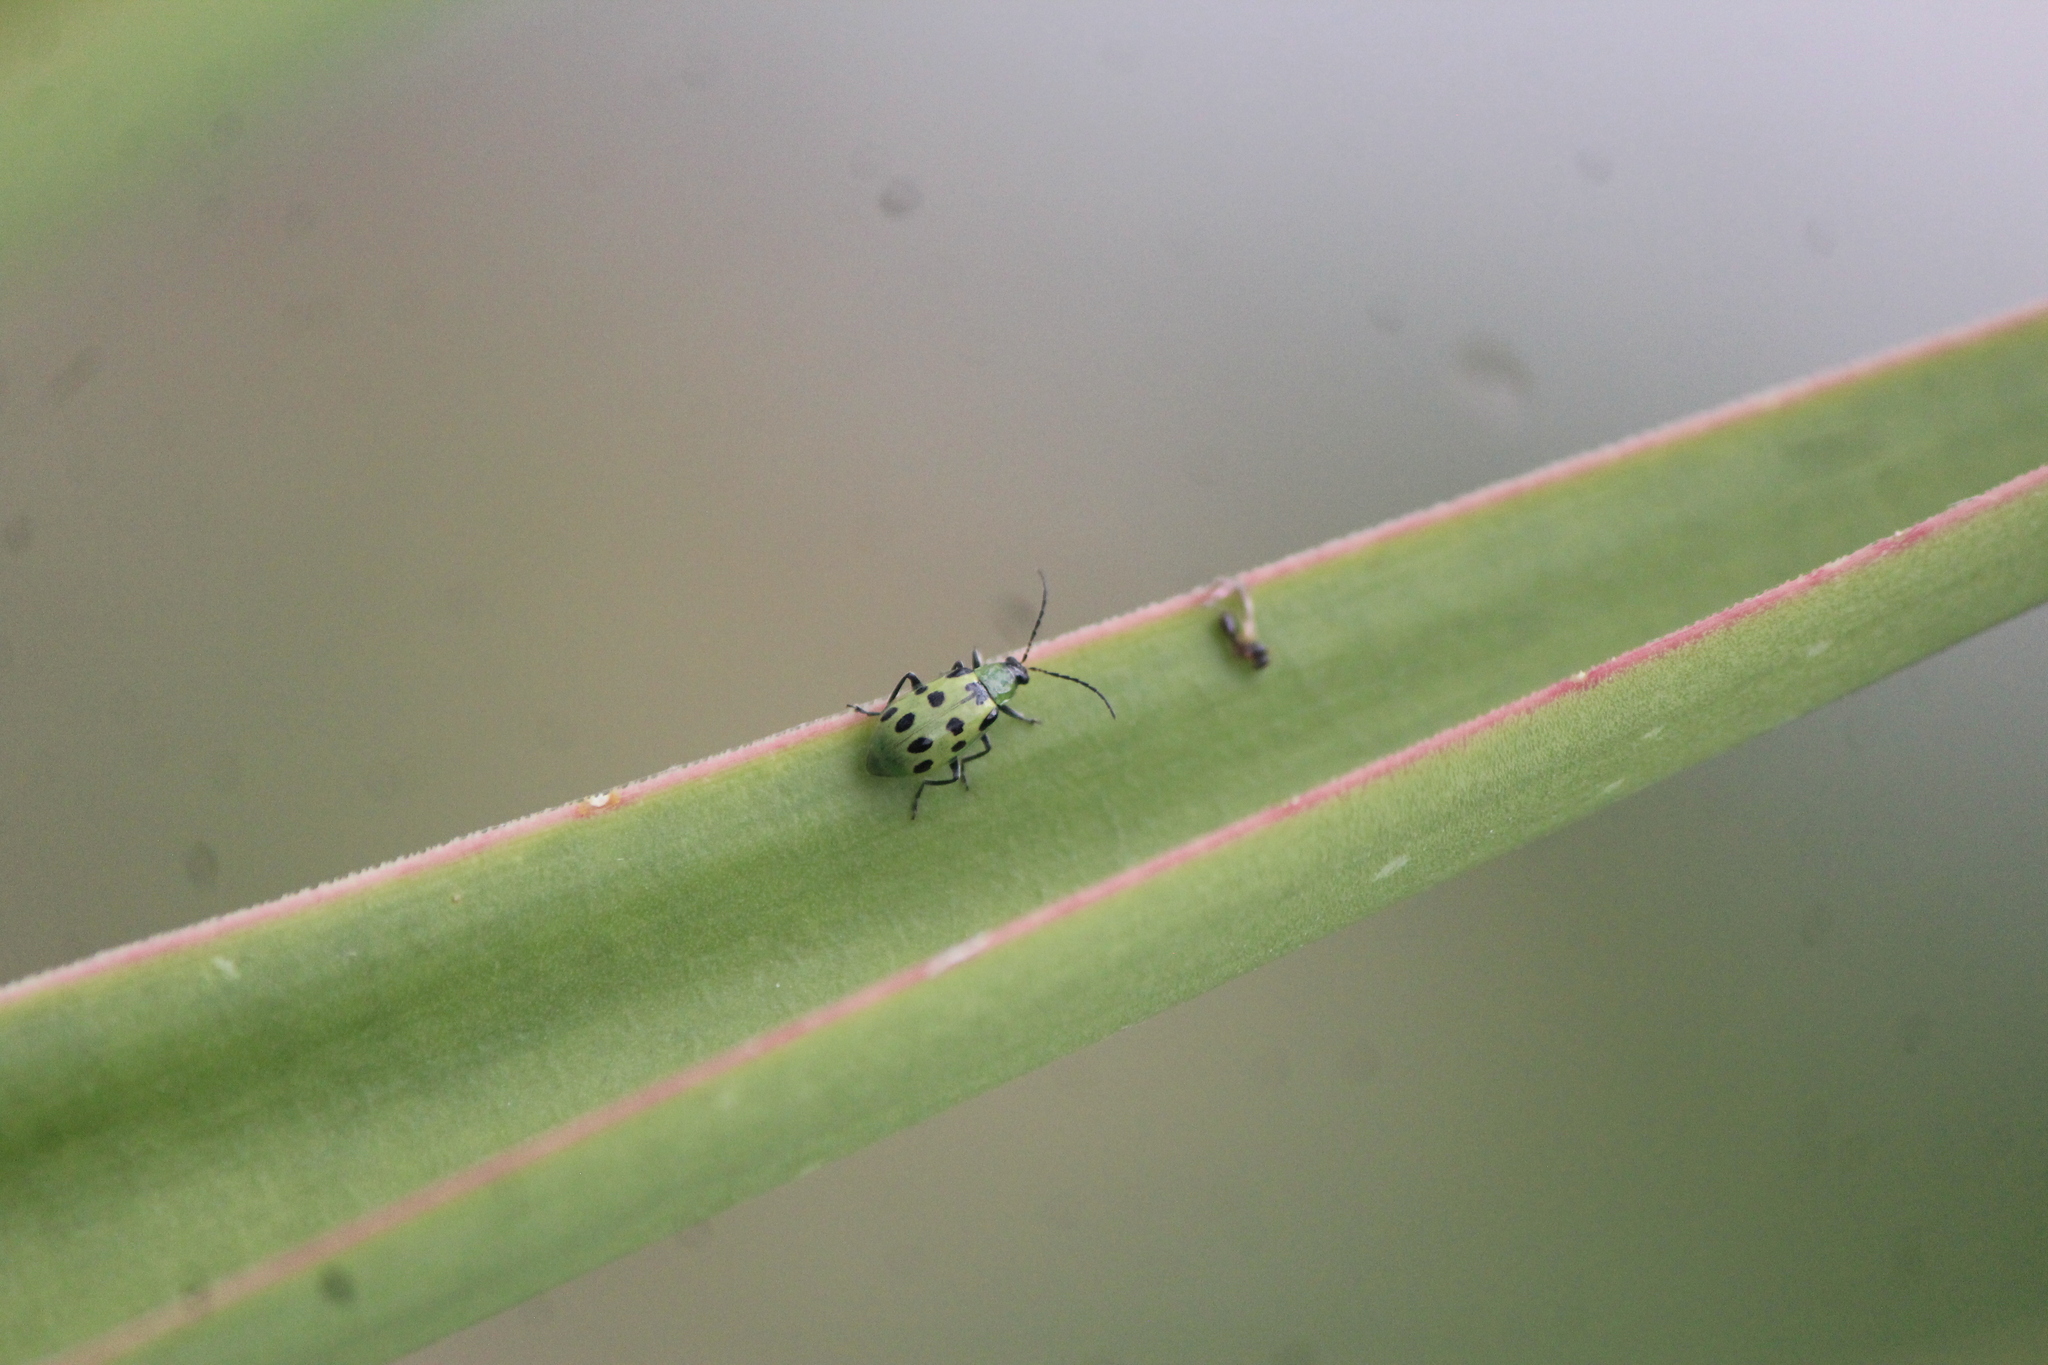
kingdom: Animalia
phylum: Arthropoda
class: Insecta
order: Coleoptera
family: Chrysomelidae
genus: Diabrotica
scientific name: Diabrotica undecimpunctata
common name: Spotted cucumber beetle
